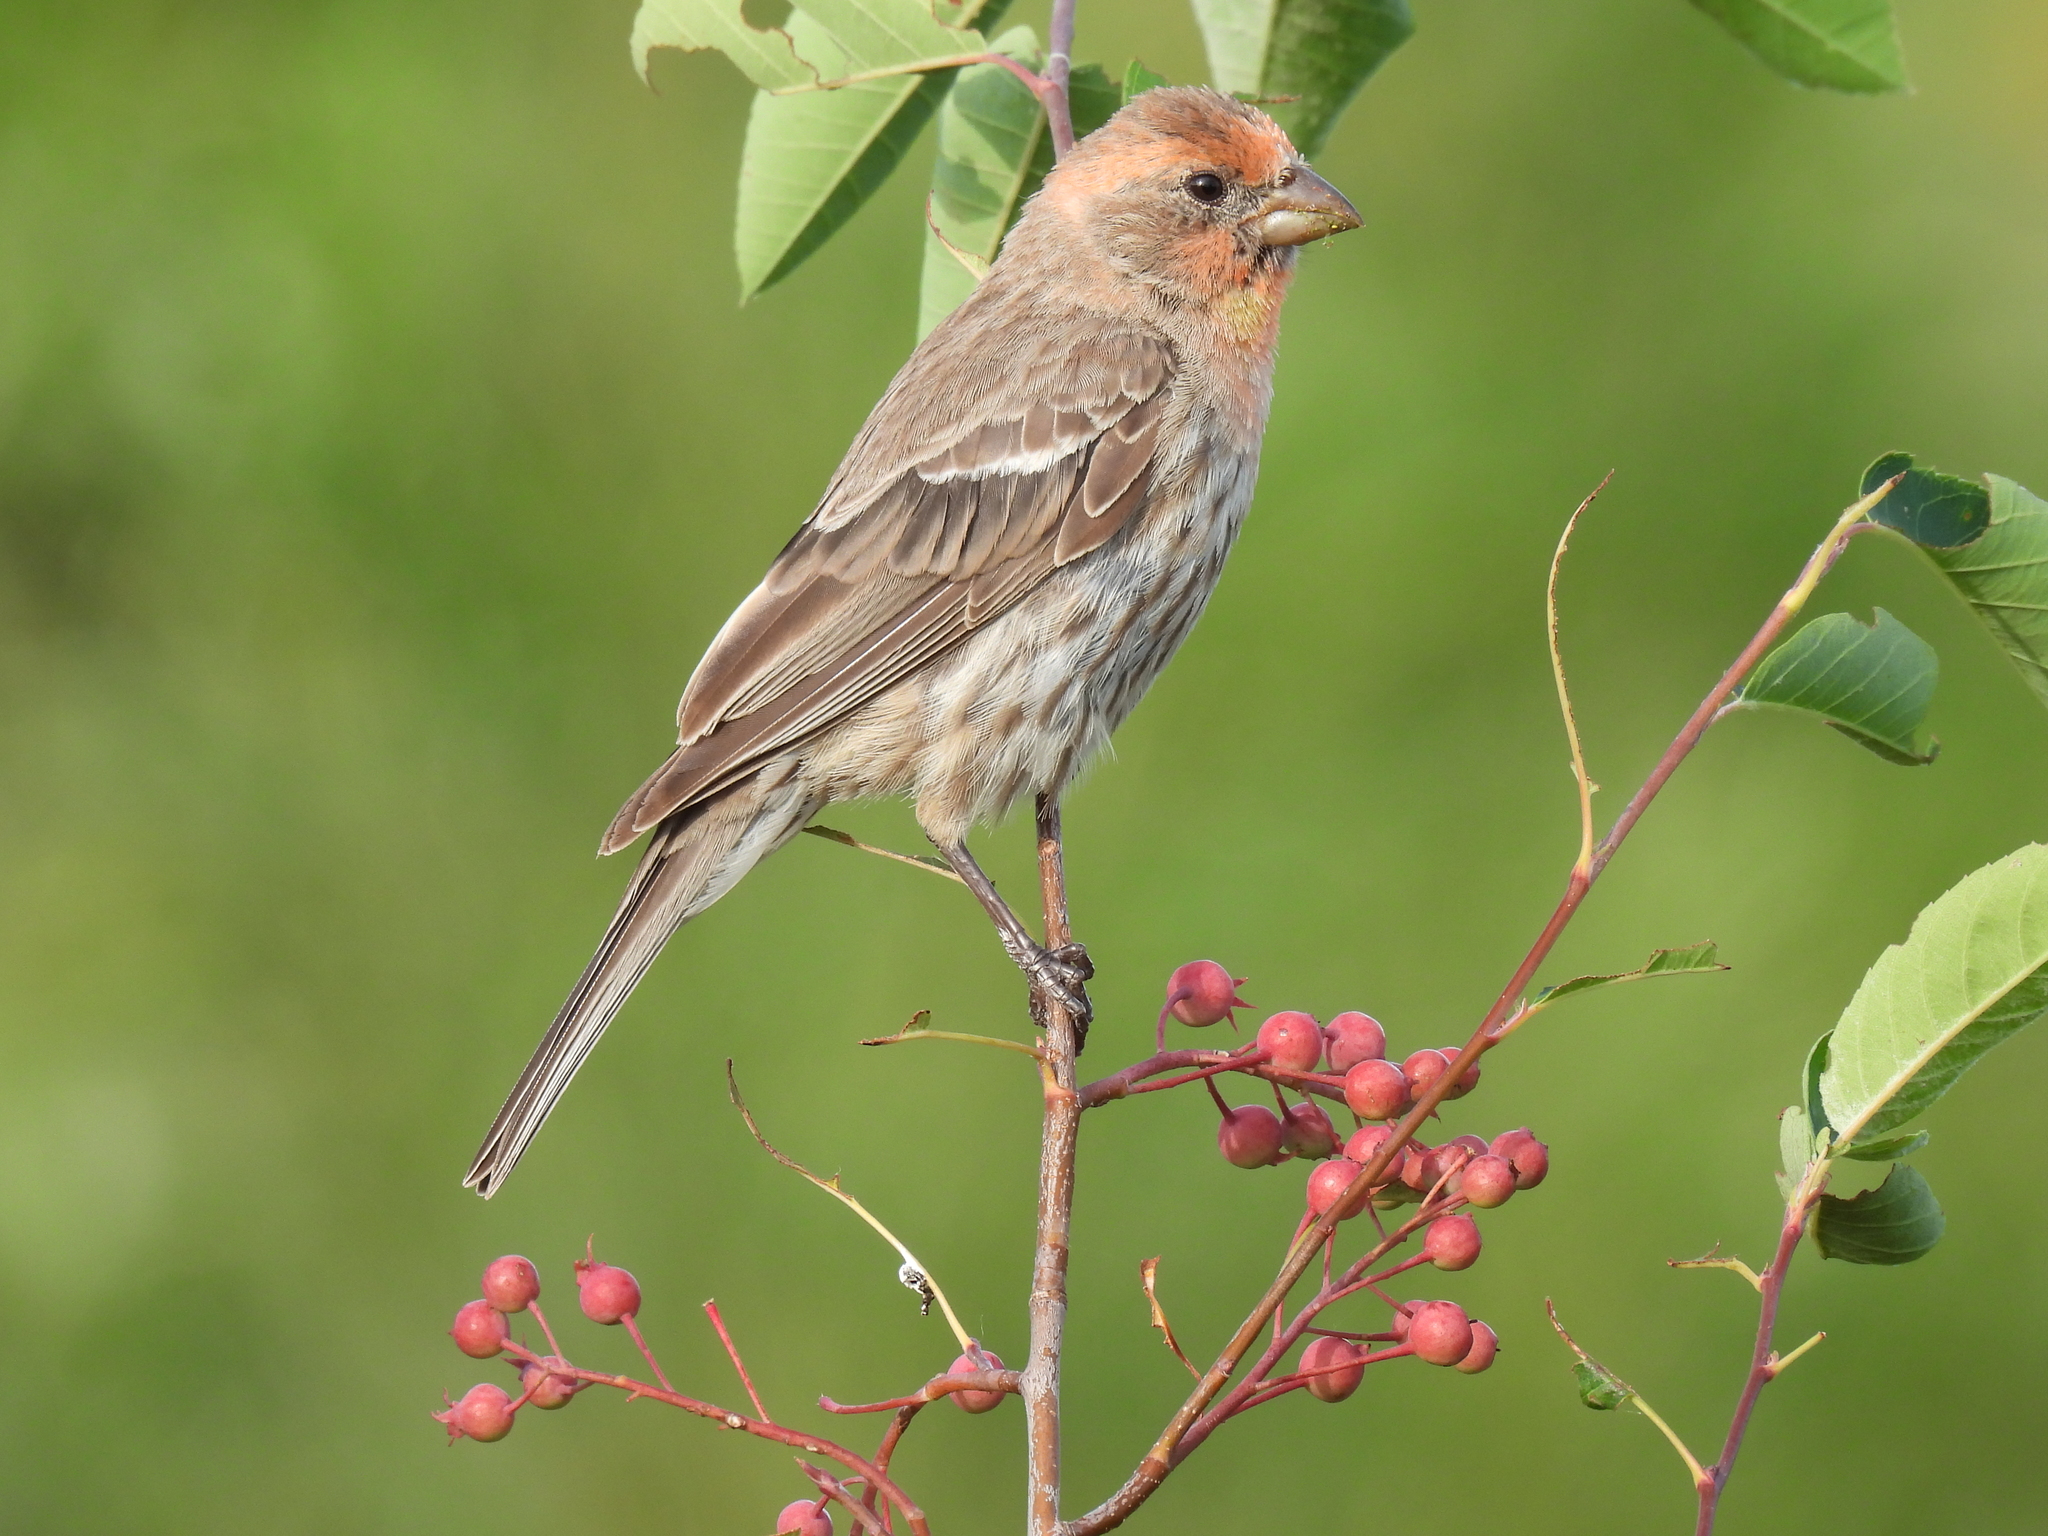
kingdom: Animalia
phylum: Chordata
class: Aves
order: Passeriformes
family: Fringillidae
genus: Haemorhous
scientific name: Haemorhous mexicanus
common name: House finch
